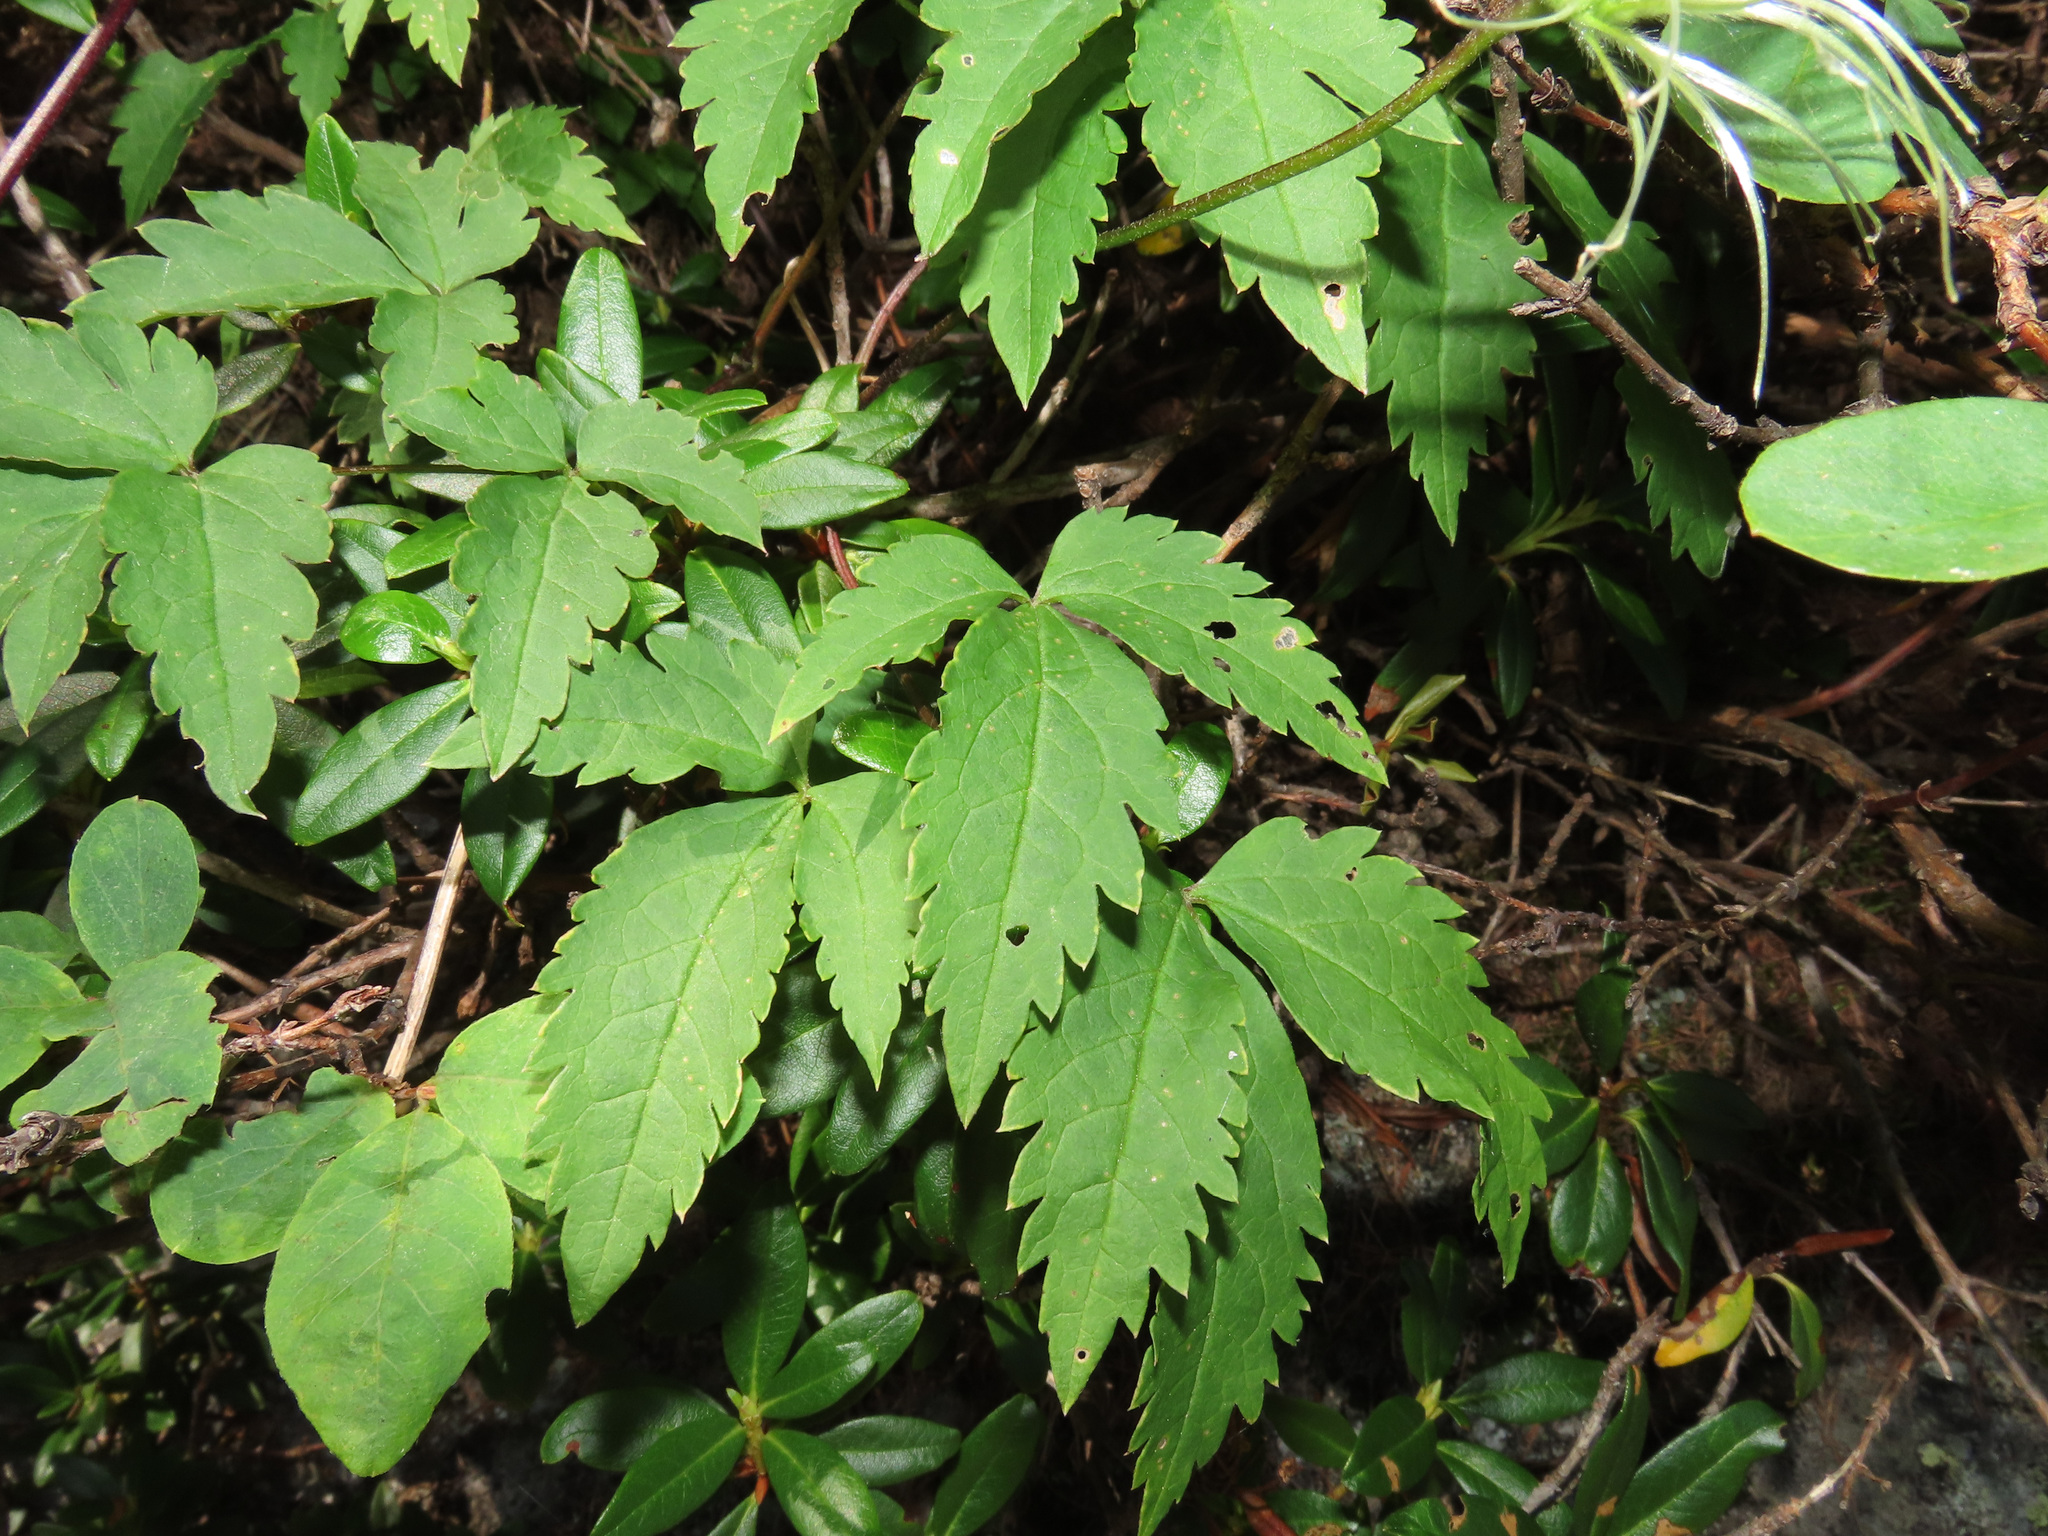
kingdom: Plantae
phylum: Tracheophyta
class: Magnoliopsida
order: Ranunculales
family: Ranunculaceae
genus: Clematis
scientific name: Clematis alpina
